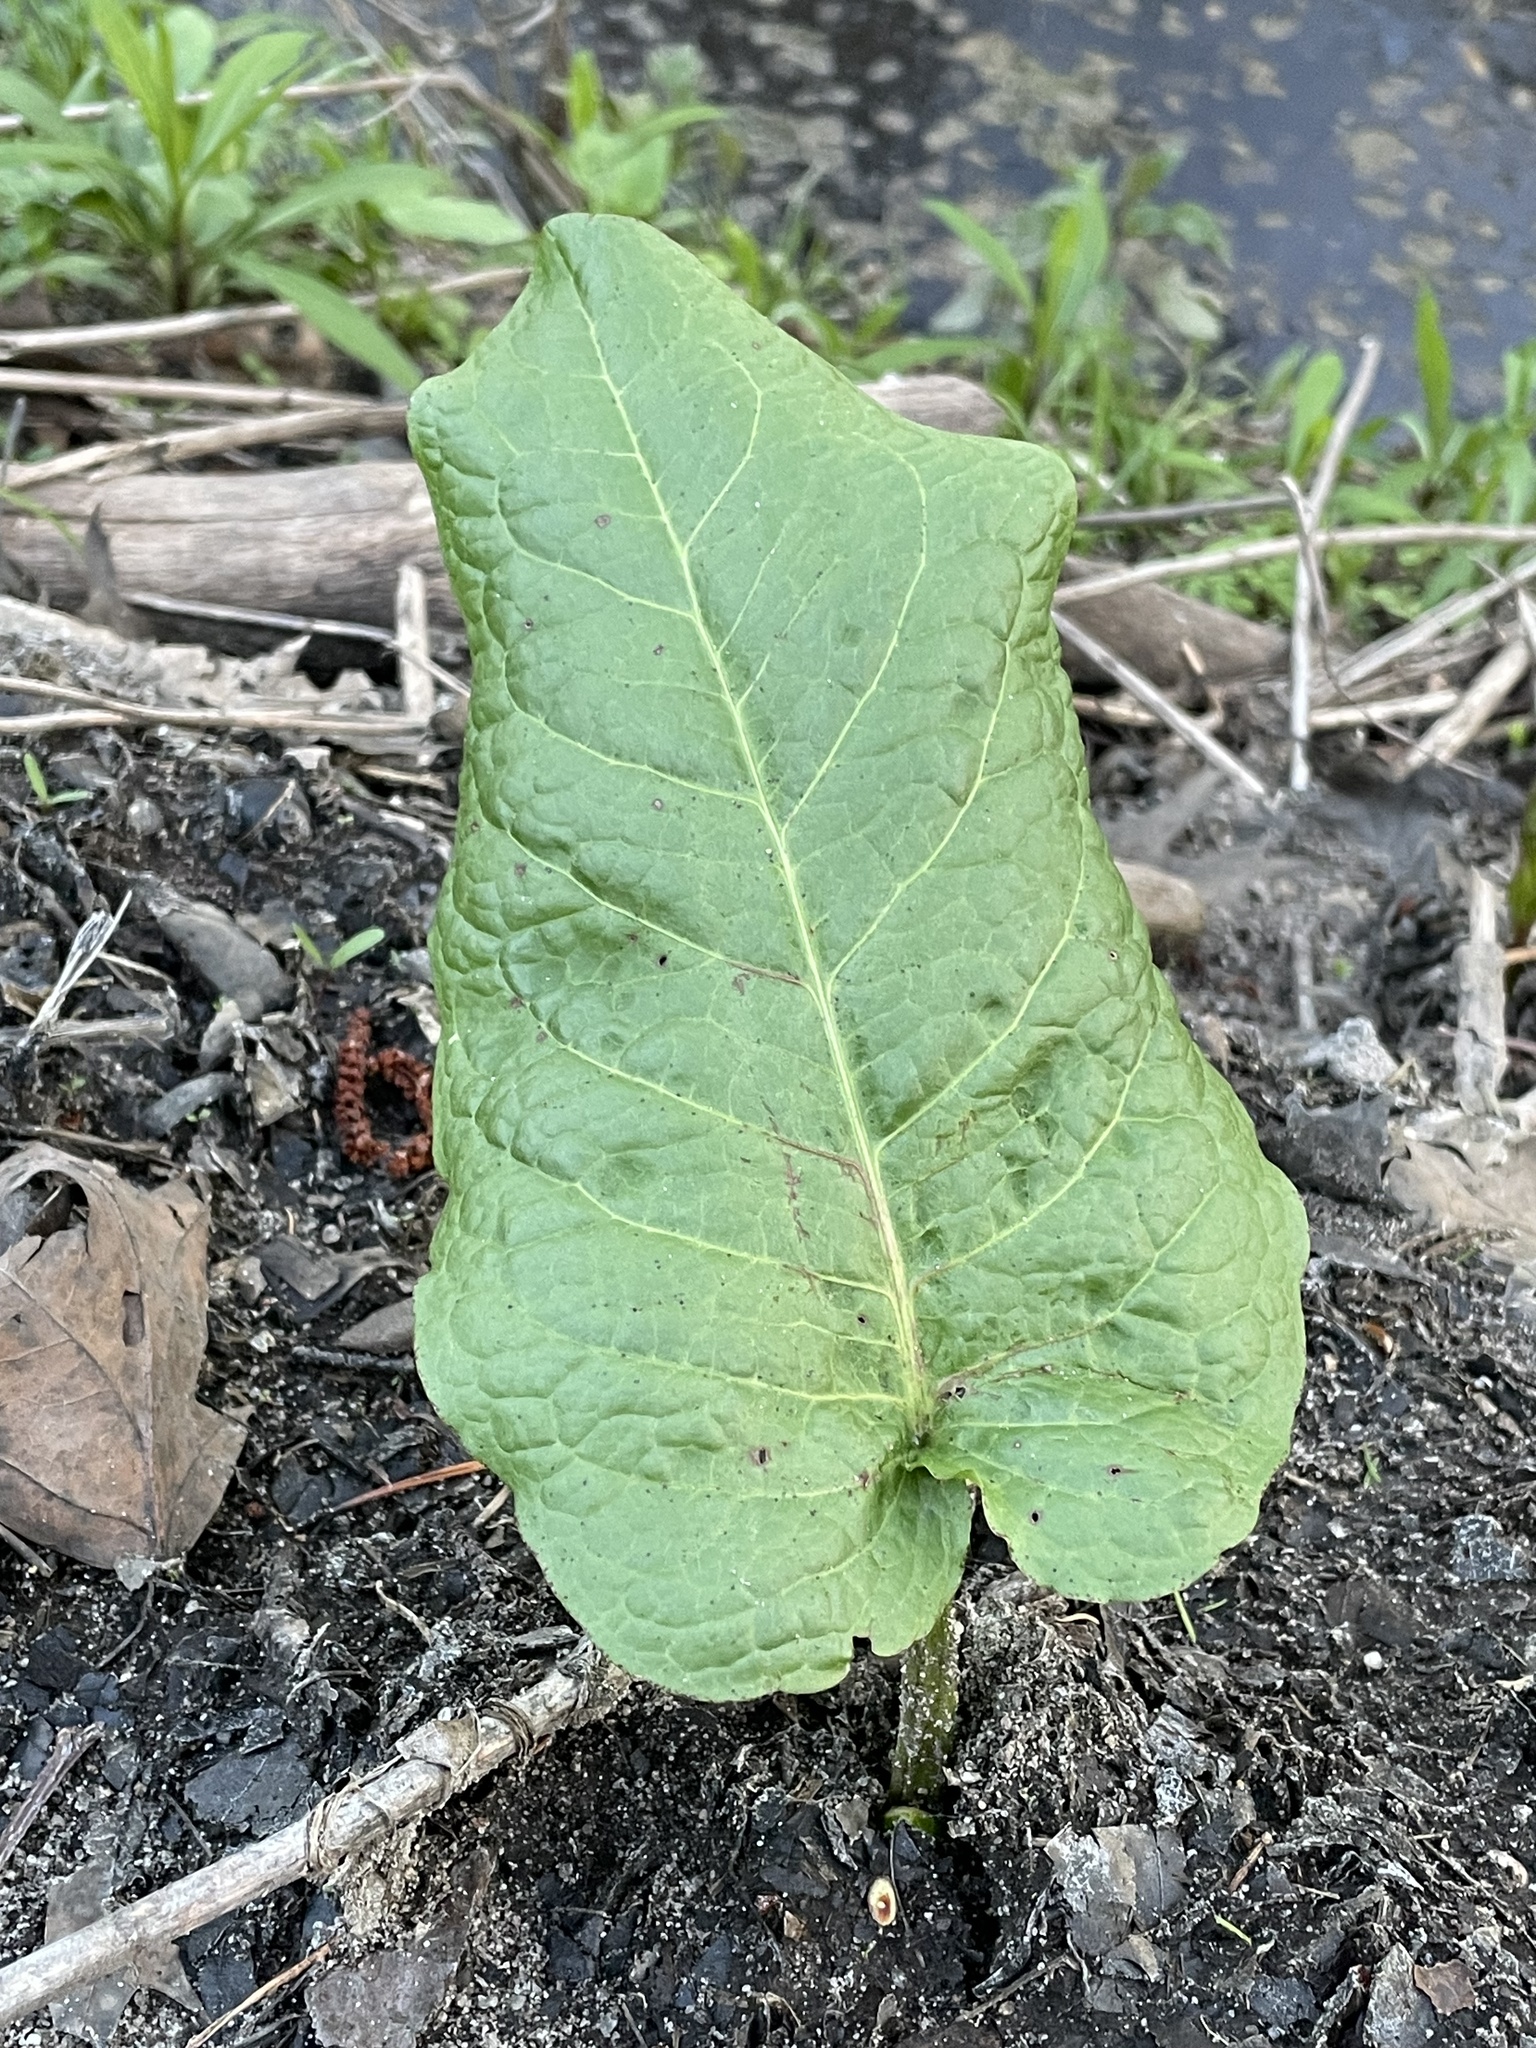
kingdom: Plantae
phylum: Tracheophyta
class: Magnoliopsida
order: Caryophyllales
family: Polygonaceae
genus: Rumex
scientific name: Rumex obtusifolius
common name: Bitter dock
